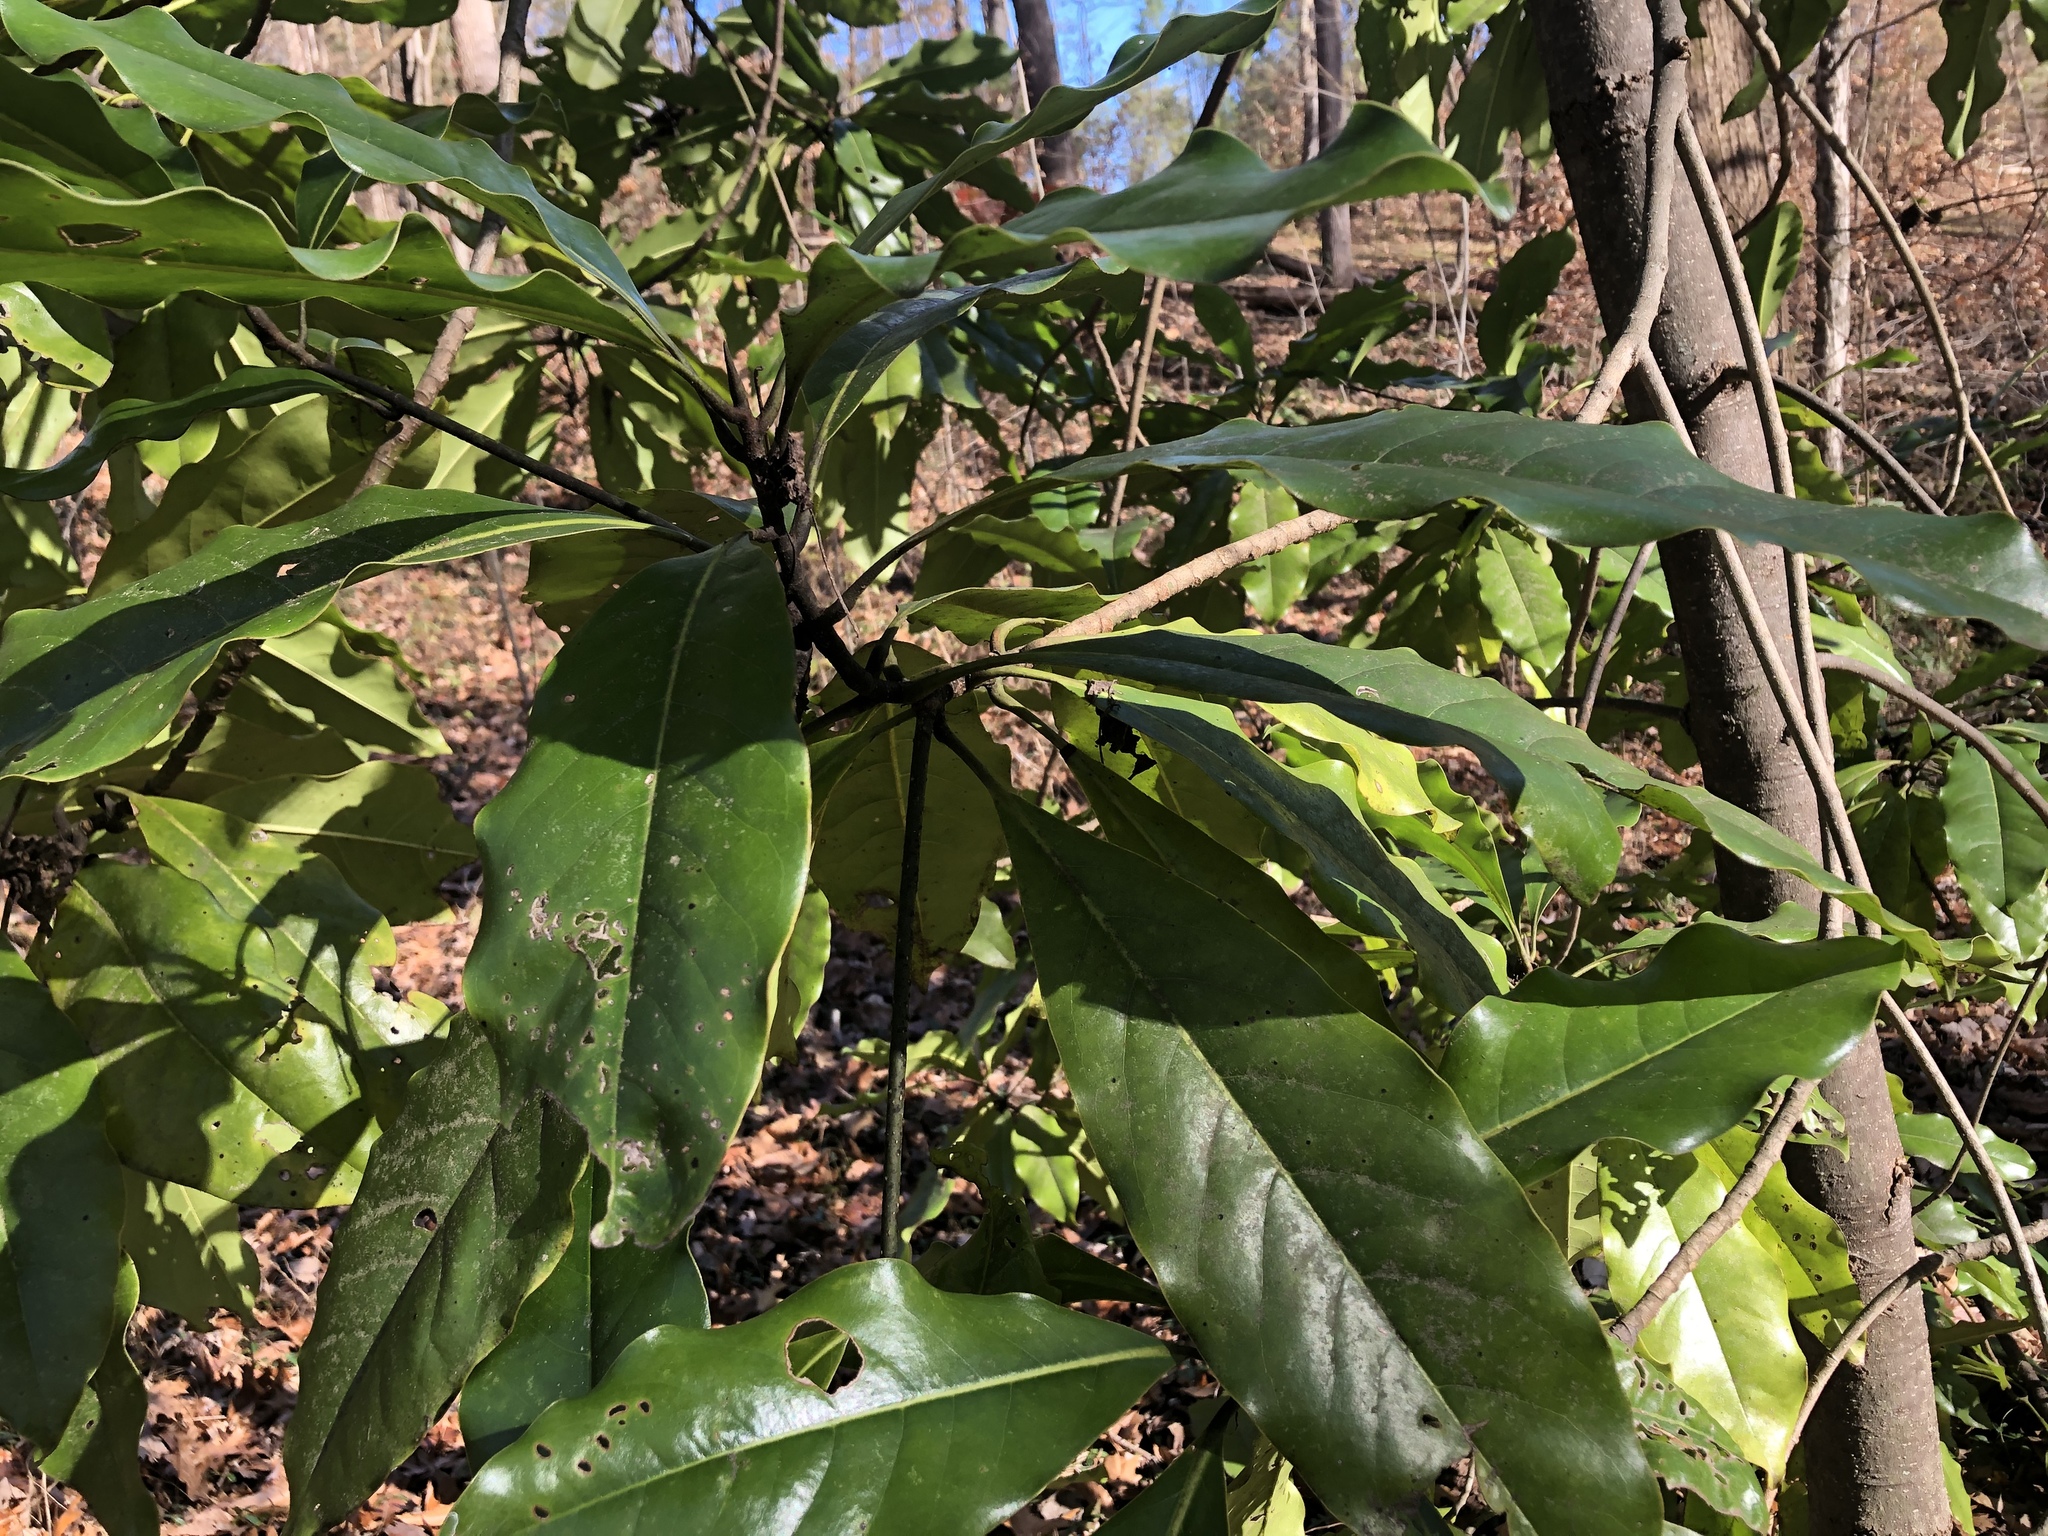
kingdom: Plantae
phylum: Tracheophyta
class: Magnoliopsida
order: Magnoliales
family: Magnoliaceae
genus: Magnolia
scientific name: Magnolia tripetala
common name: Umbrella magnolia
